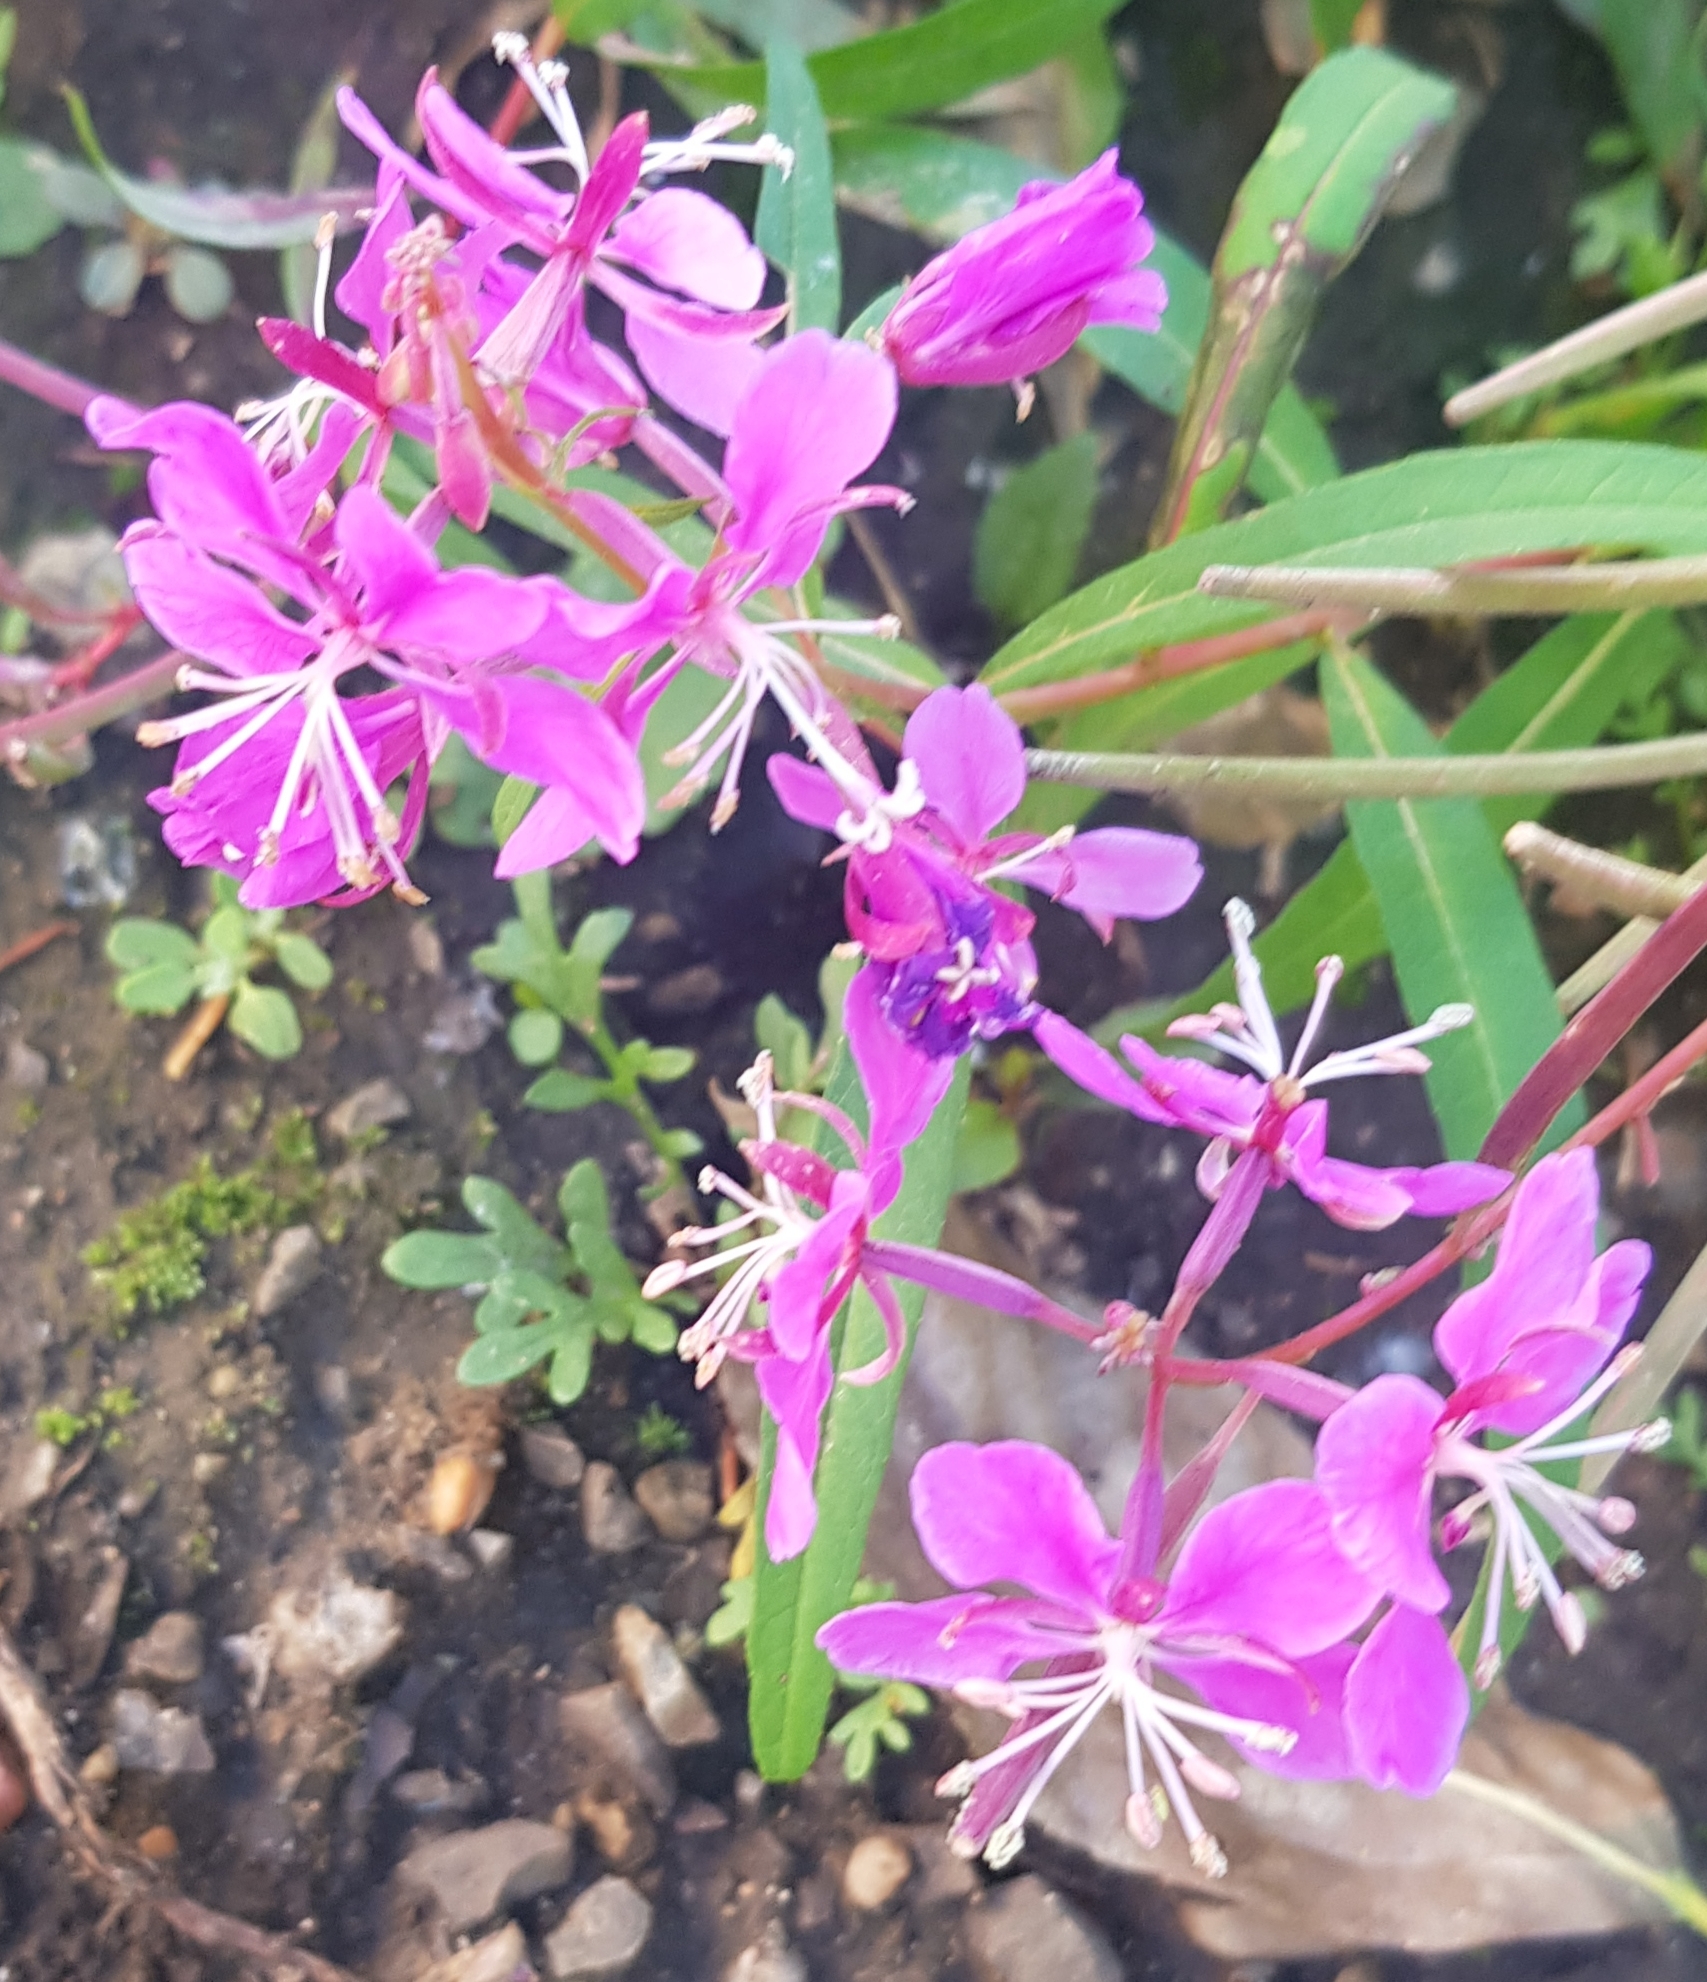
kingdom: Plantae
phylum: Tracheophyta
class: Magnoliopsida
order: Myrtales
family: Onagraceae
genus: Chamaenerion
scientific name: Chamaenerion angustifolium
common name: Fireweed
